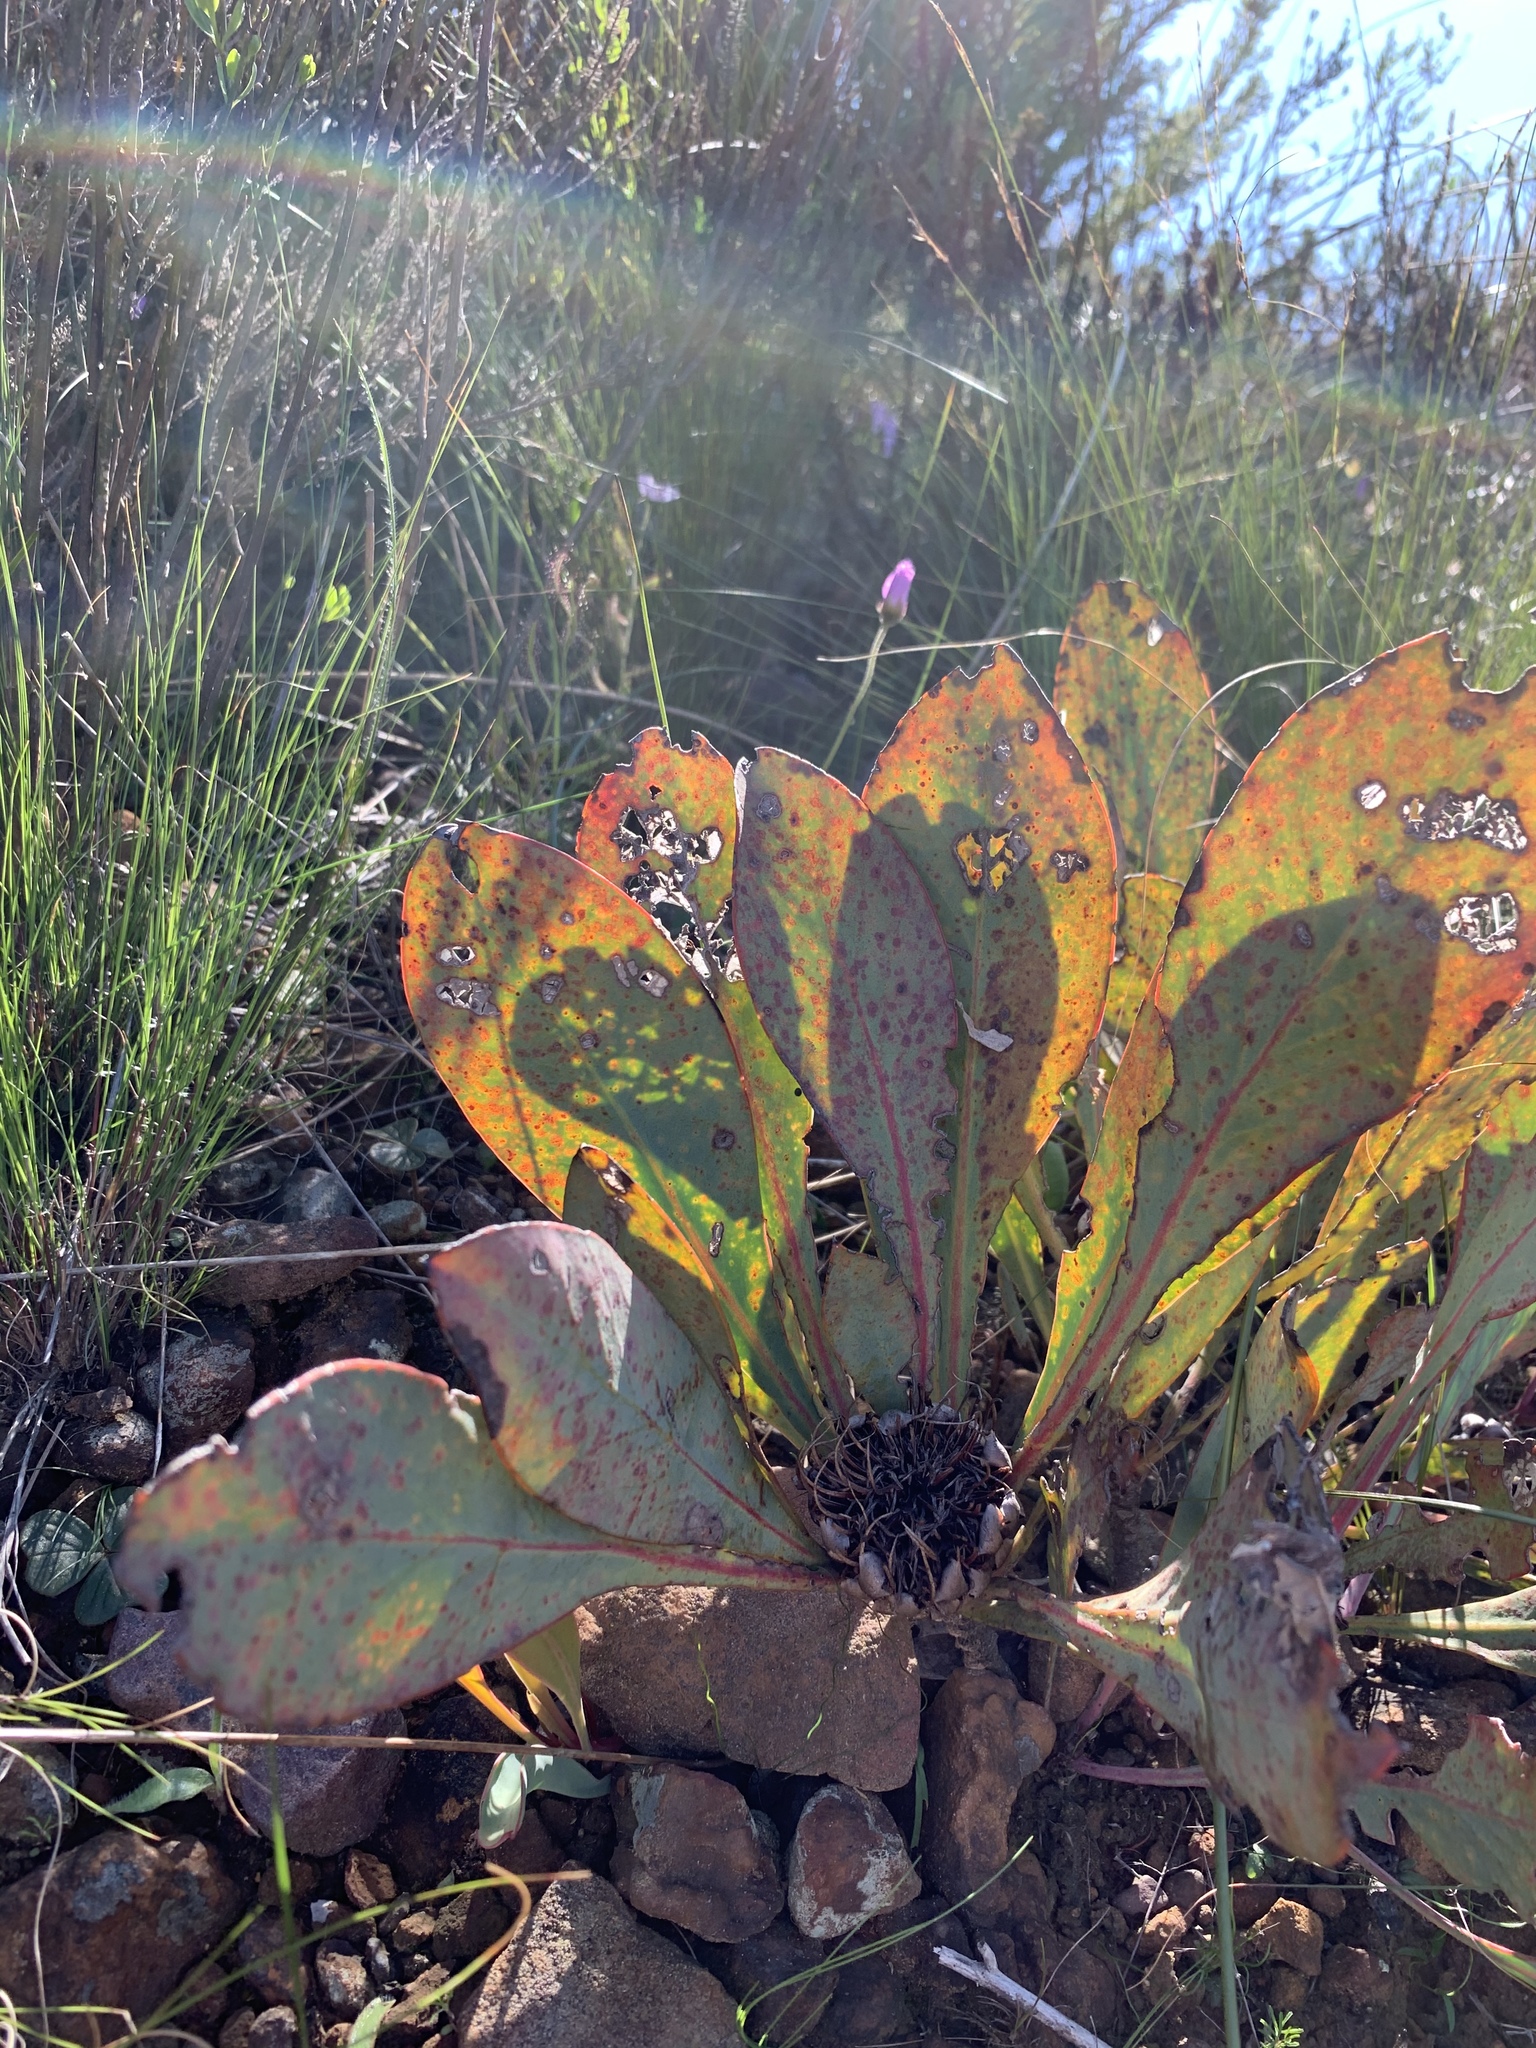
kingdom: Plantae
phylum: Tracheophyta
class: Magnoliopsida
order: Proteales
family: Proteaceae
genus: Protea
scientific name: Protea acaulos
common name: Common ground sugarbush
